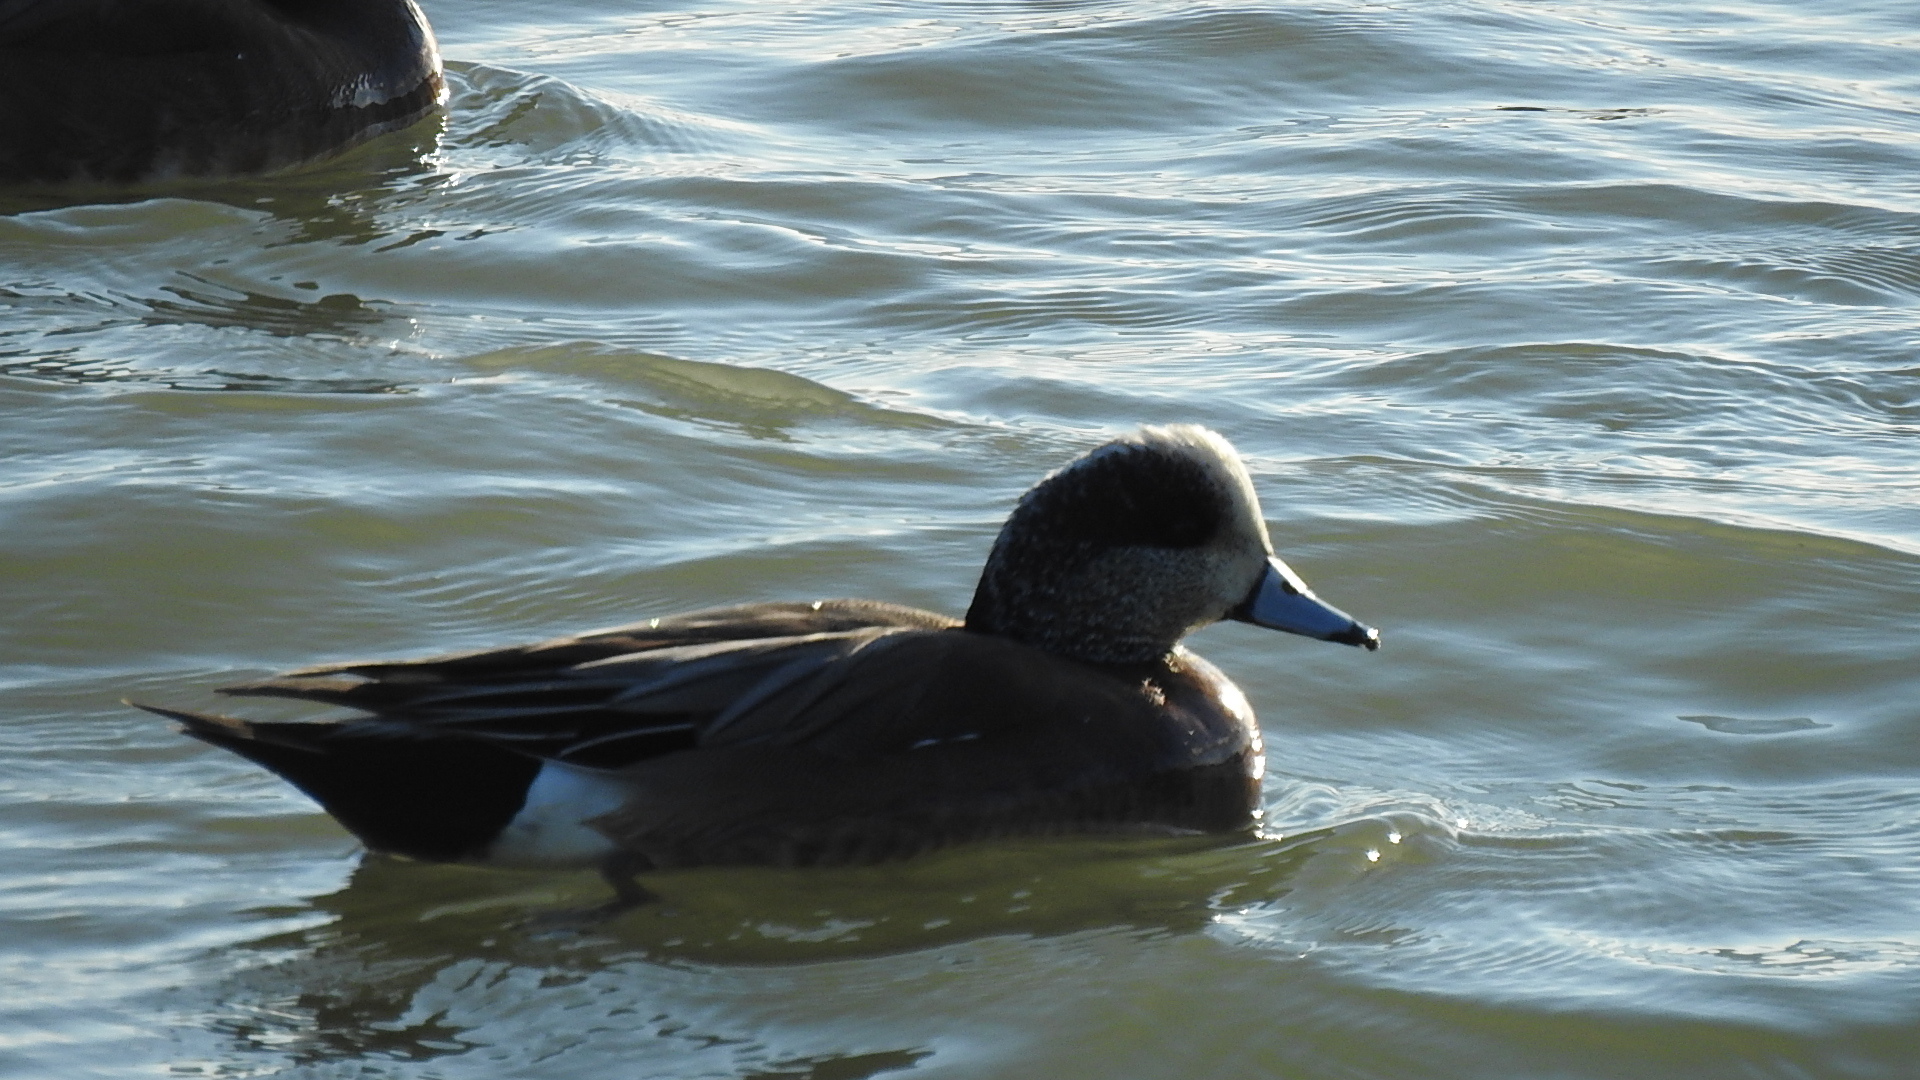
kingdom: Animalia
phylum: Chordata
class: Aves
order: Anseriformes
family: Anatidae
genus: Mareca
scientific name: Mareca americana
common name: American wigeon
